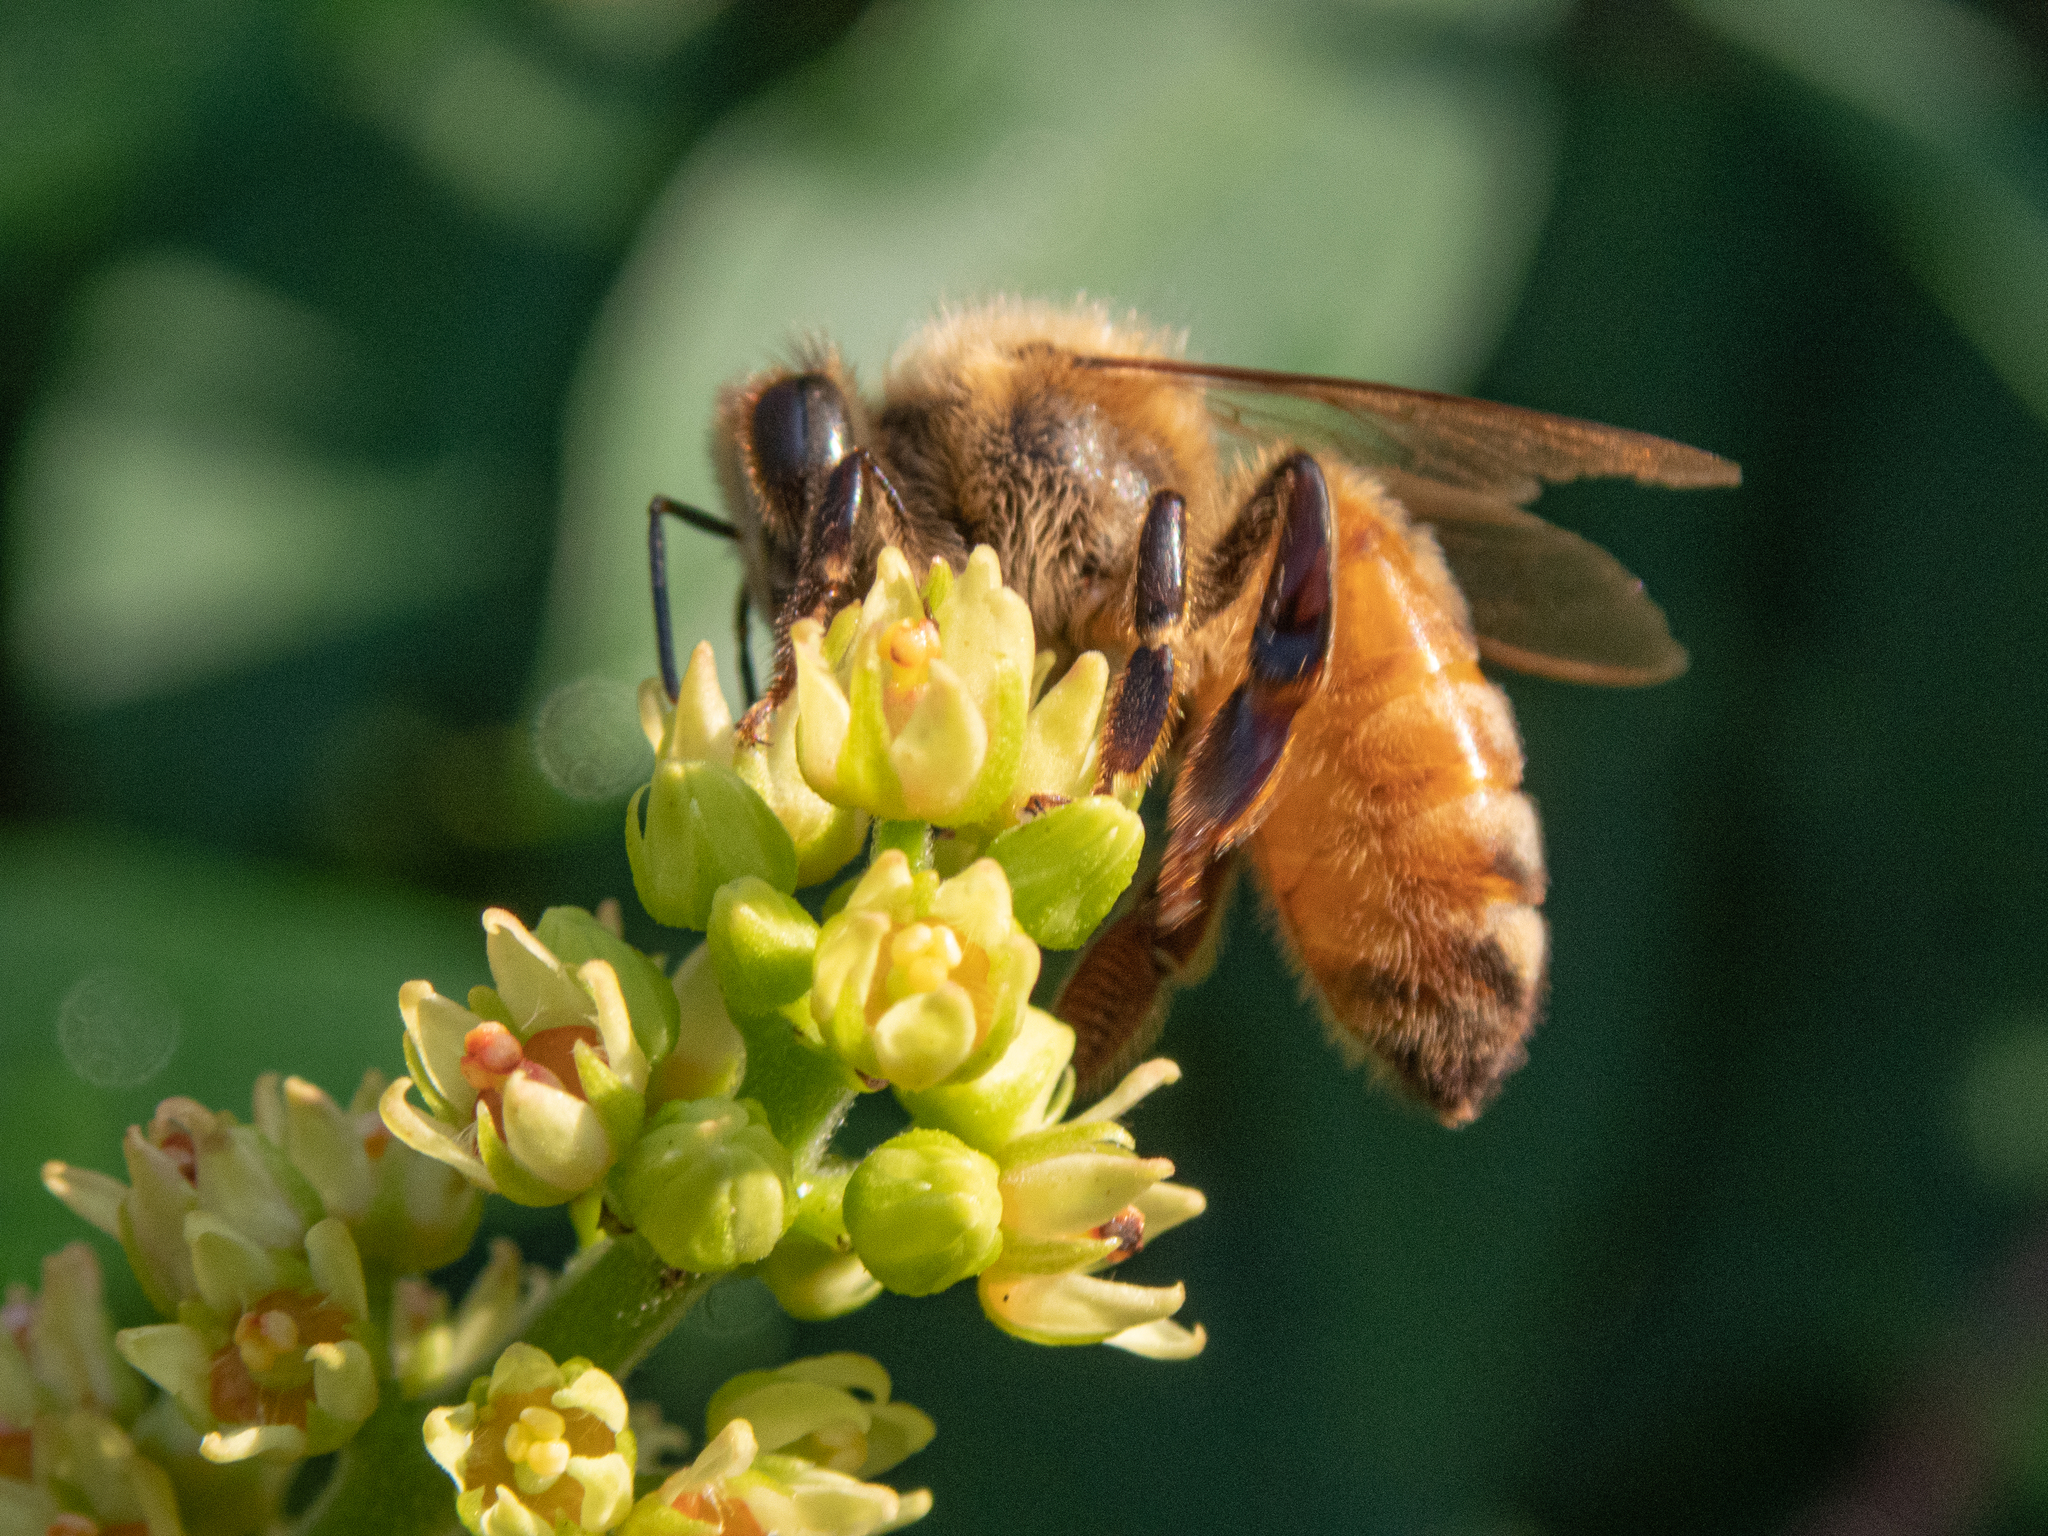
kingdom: Animalia
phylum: Arthropoda
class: Insecta
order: Hymenoptera
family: Apidae
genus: Apis
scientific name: Apis mellifera
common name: Honey bee
